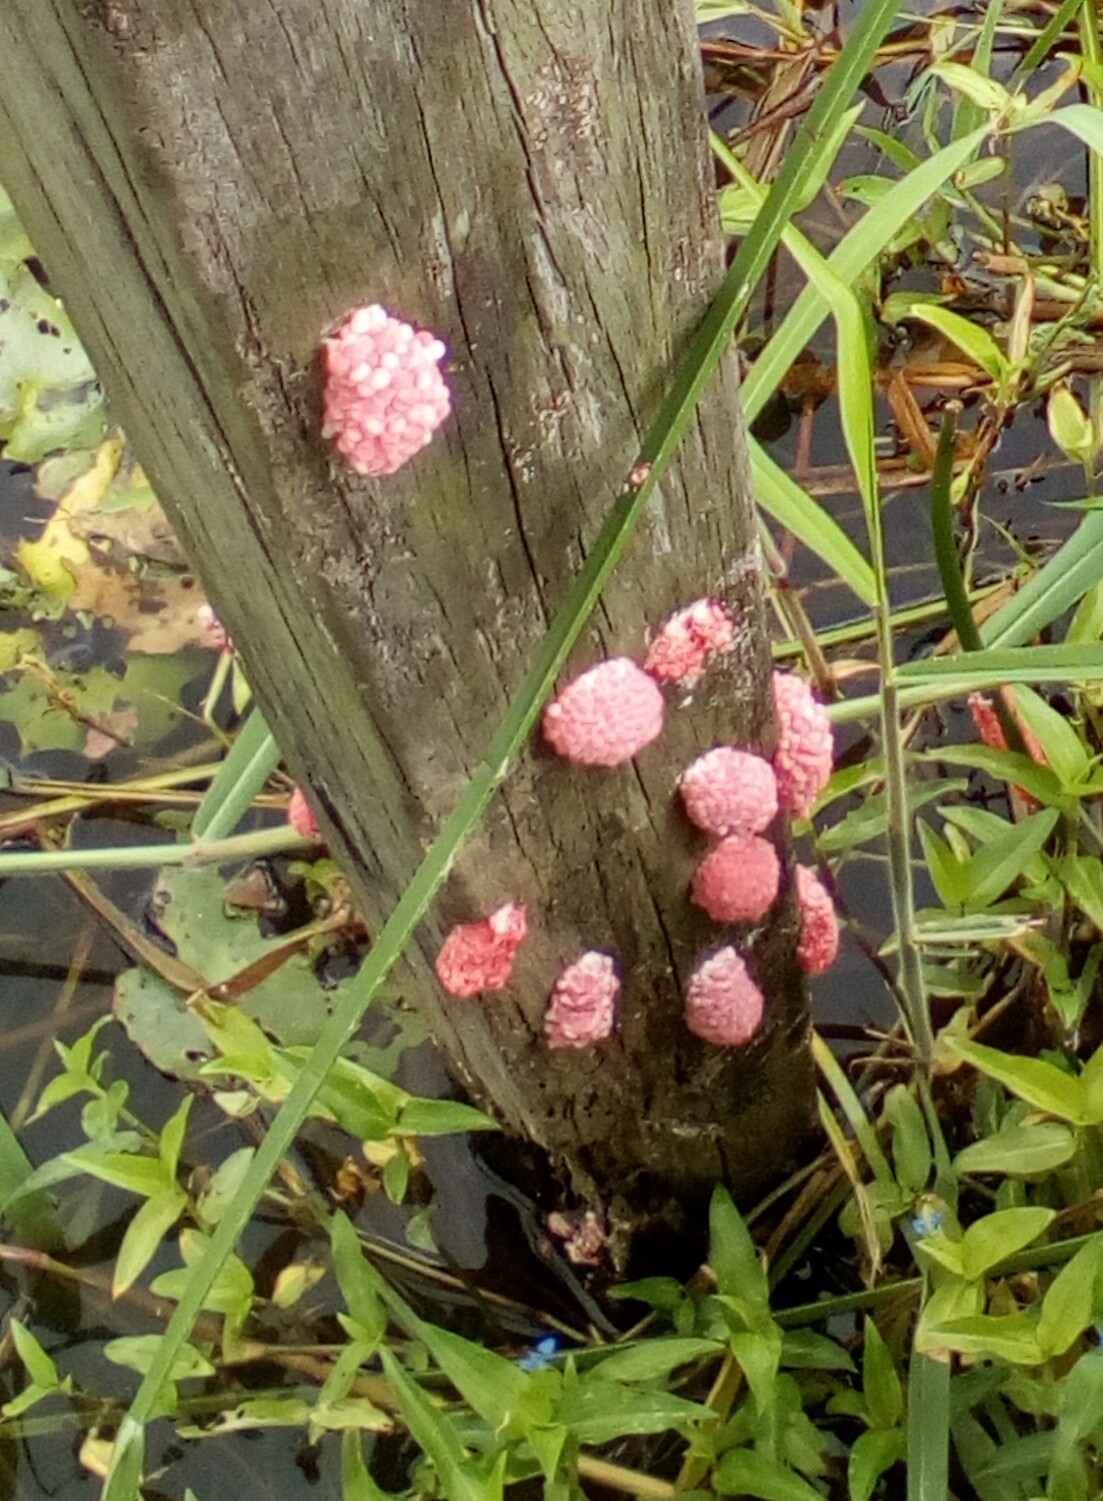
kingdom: Animalia
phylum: Mollusca
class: Gastropoda
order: Architaenioglossa
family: Ampullariidae
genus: Pomacea
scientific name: Pomacea canaliculata
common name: Channeled applesnail
